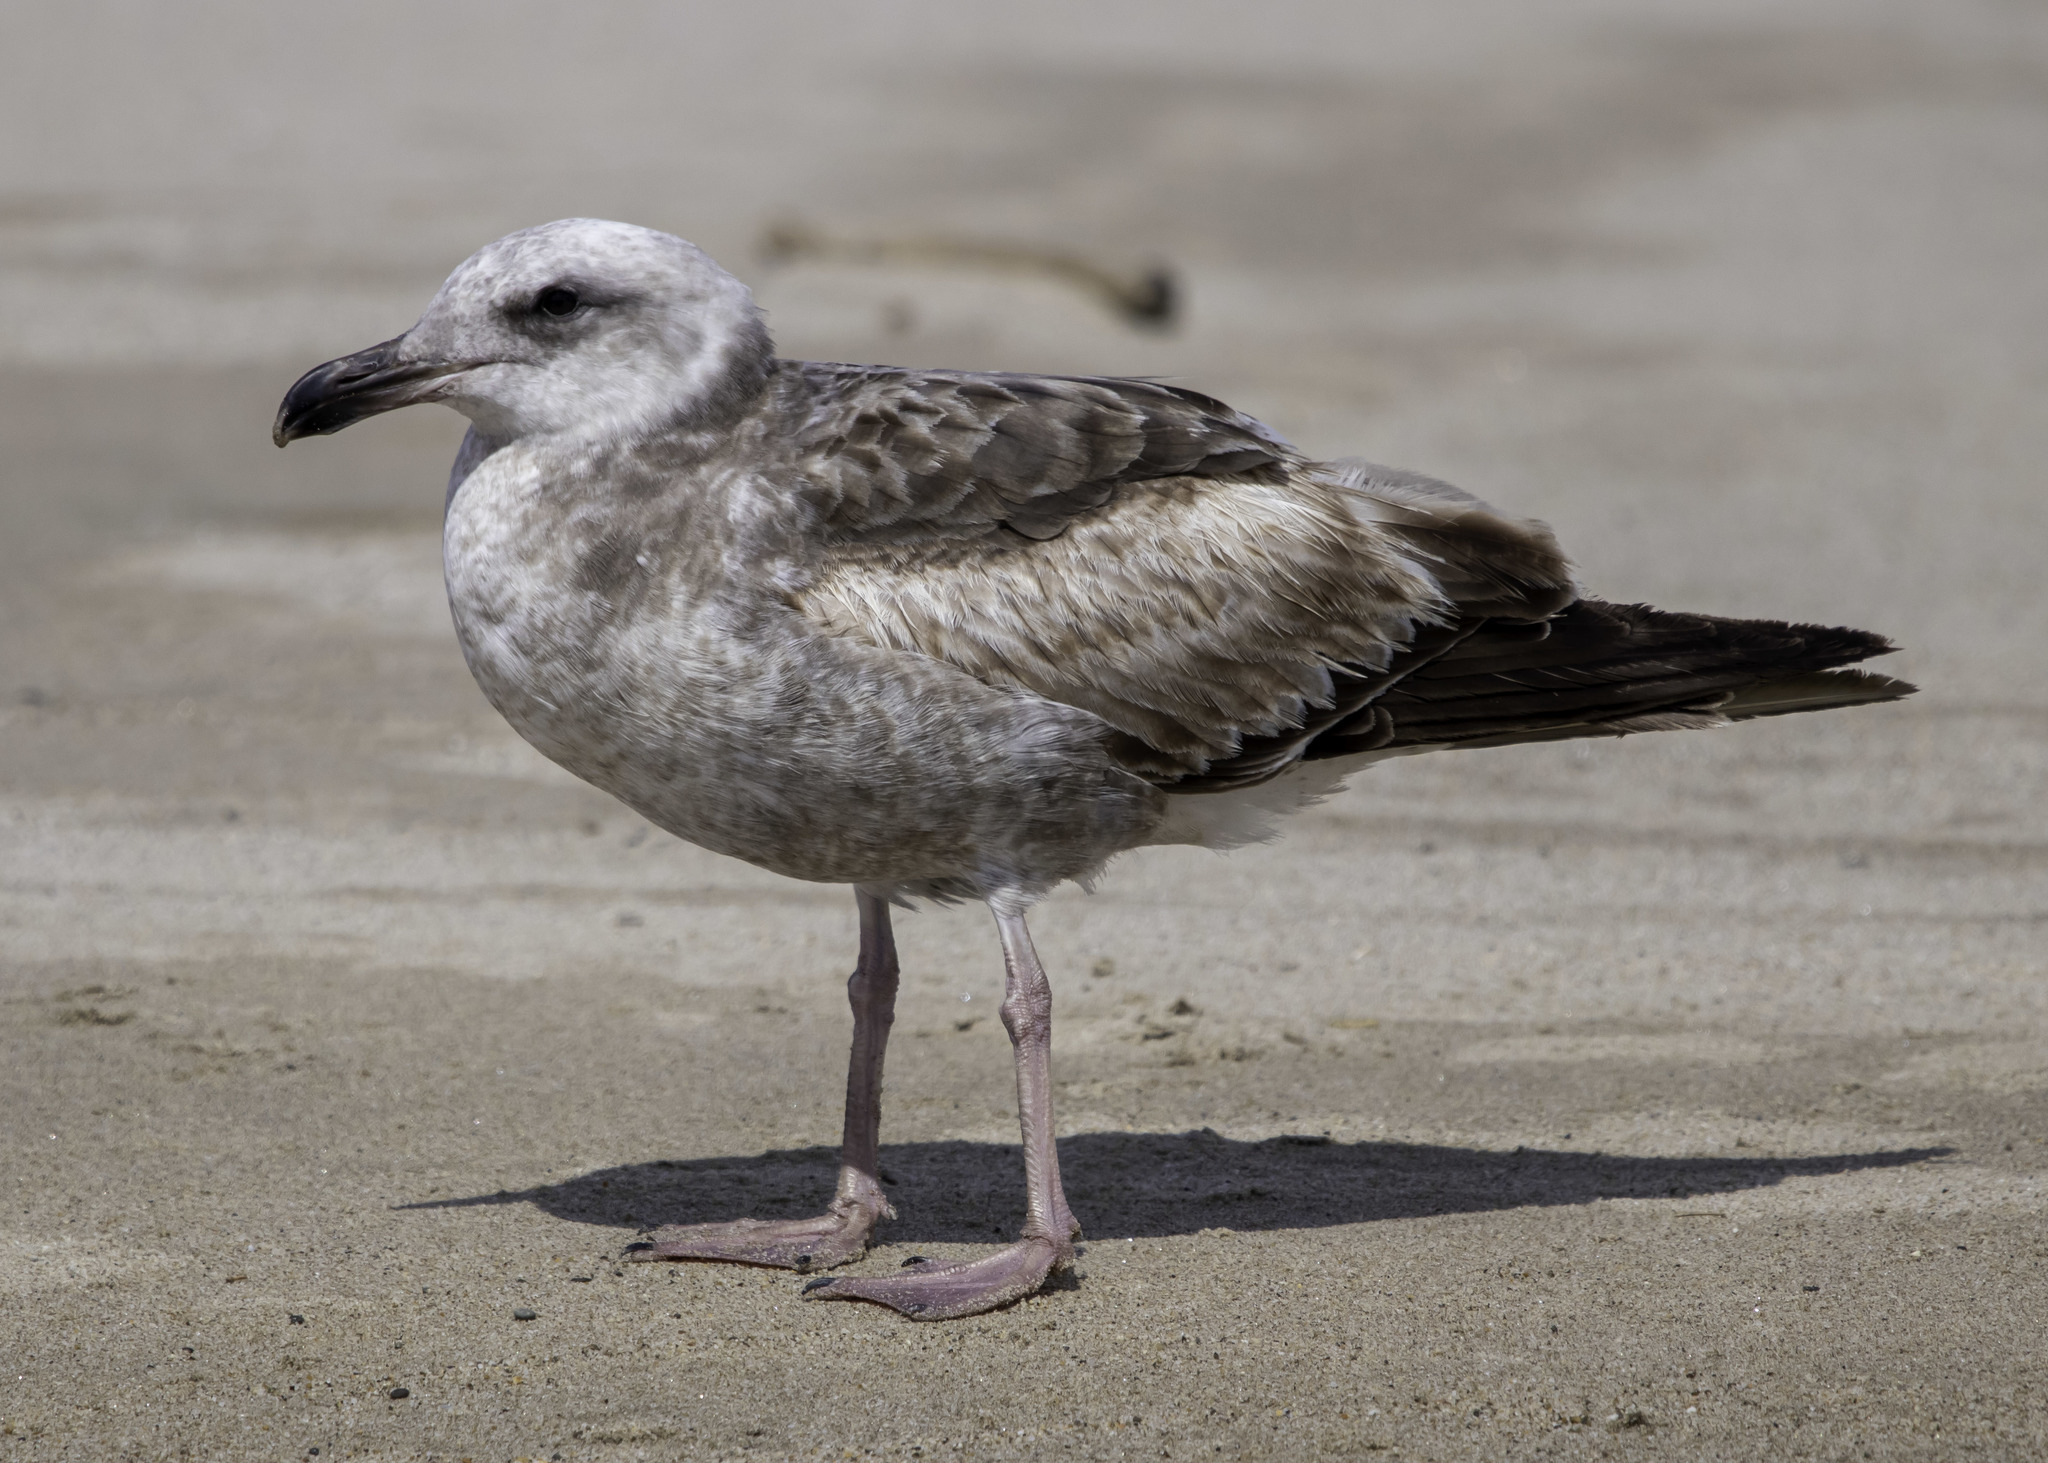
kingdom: Animalia
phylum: Chordata
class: Aves
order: Charadriiformes
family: Laridae
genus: Larus
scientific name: Larus occidentalis
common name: Western gull
